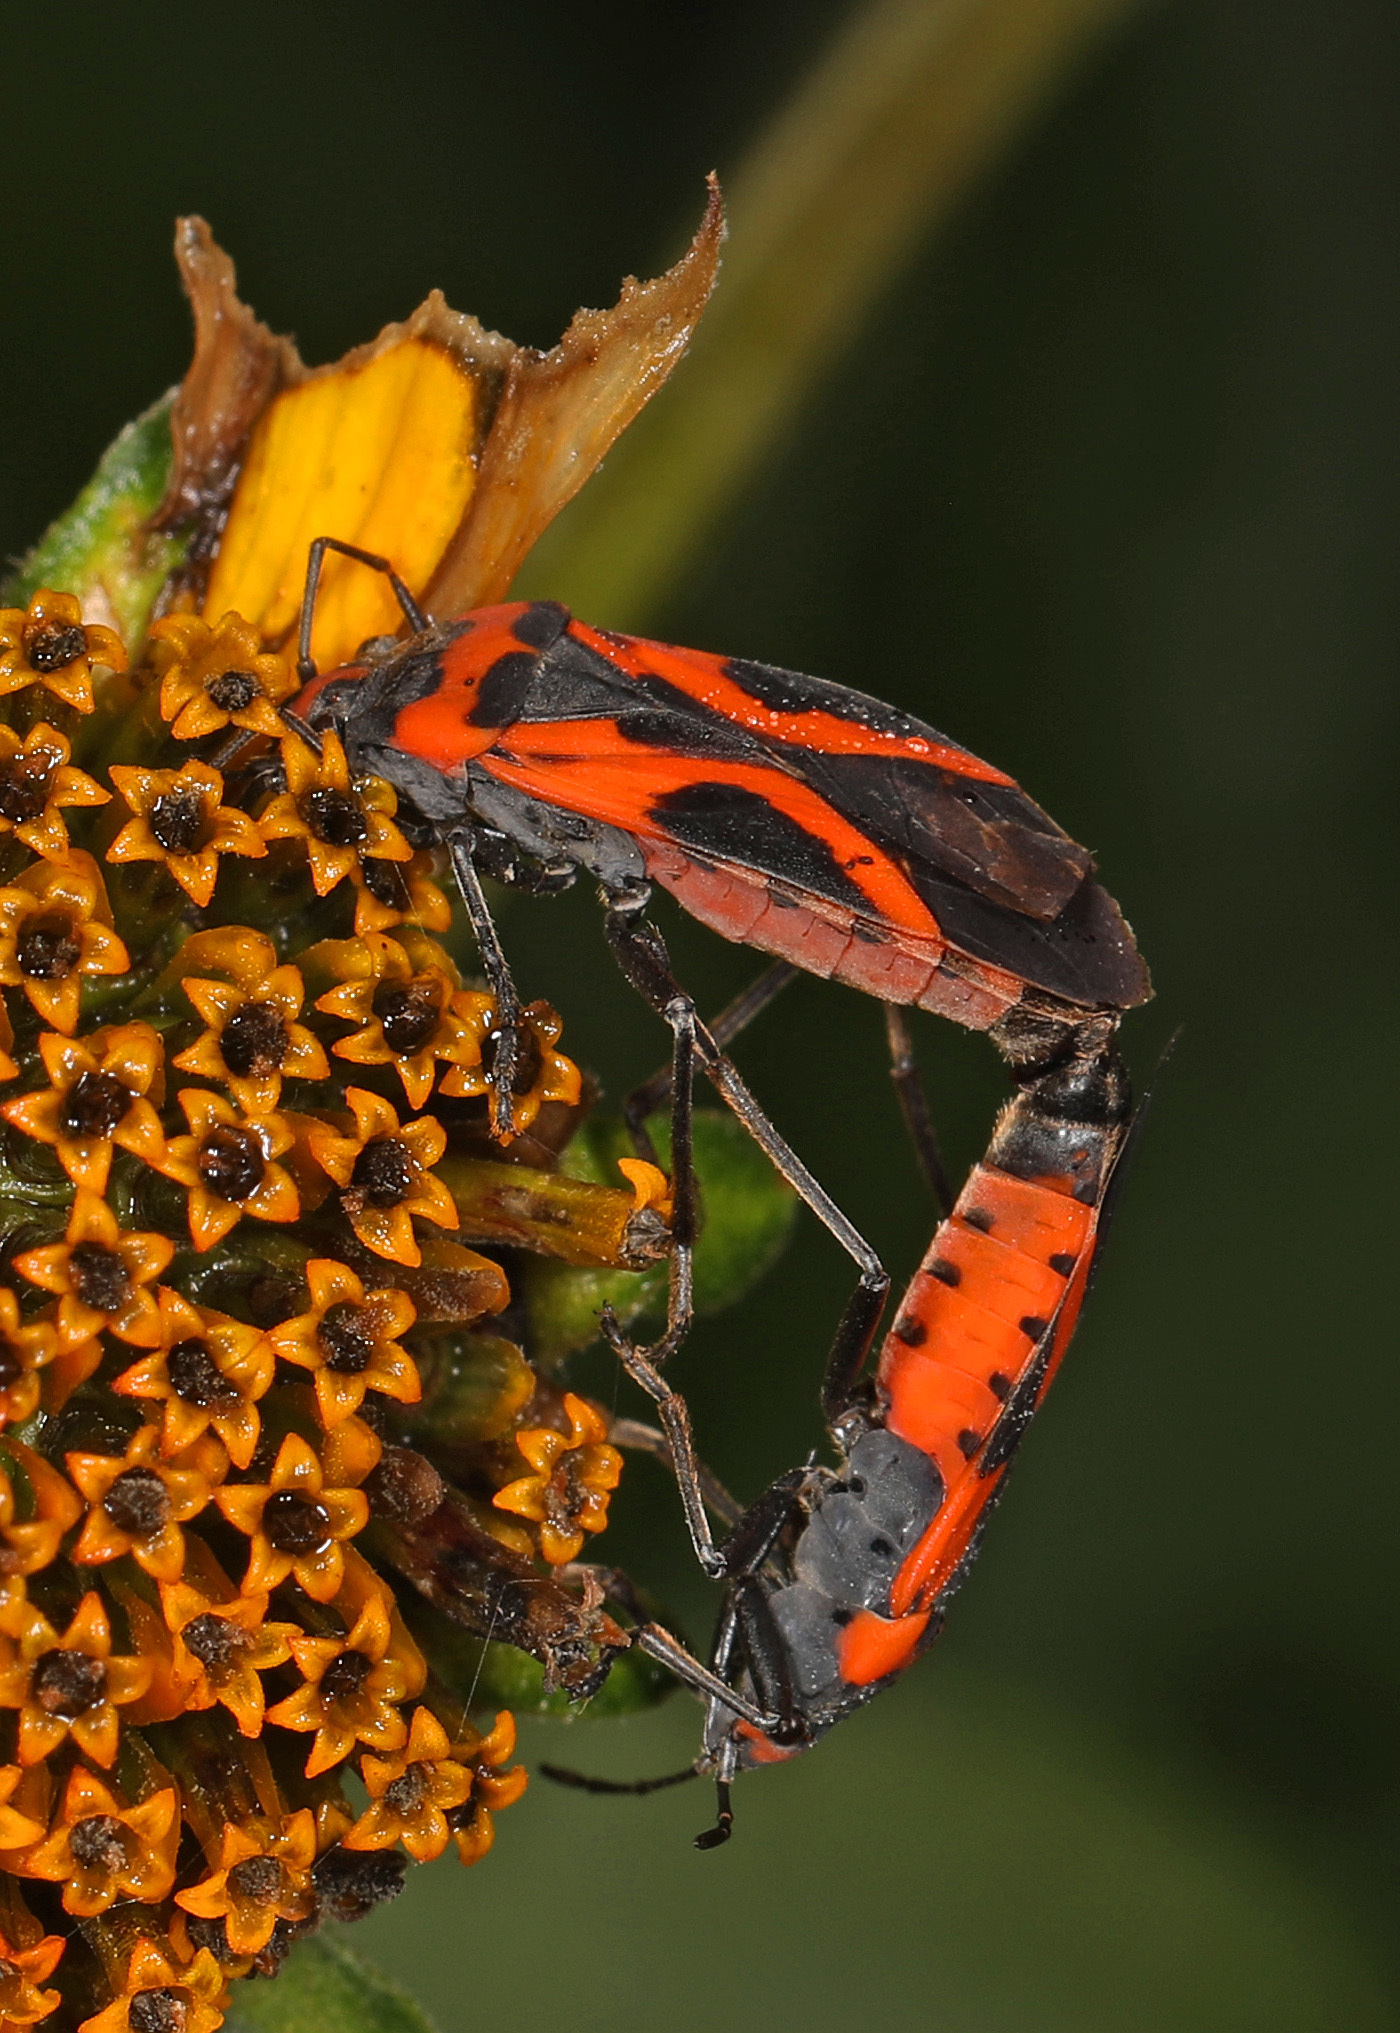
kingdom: Animalia
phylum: Arthropoda
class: Insecta
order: Hemiptera
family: Lygaeidae
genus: Lygaeus
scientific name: Lygaeus turcicus
